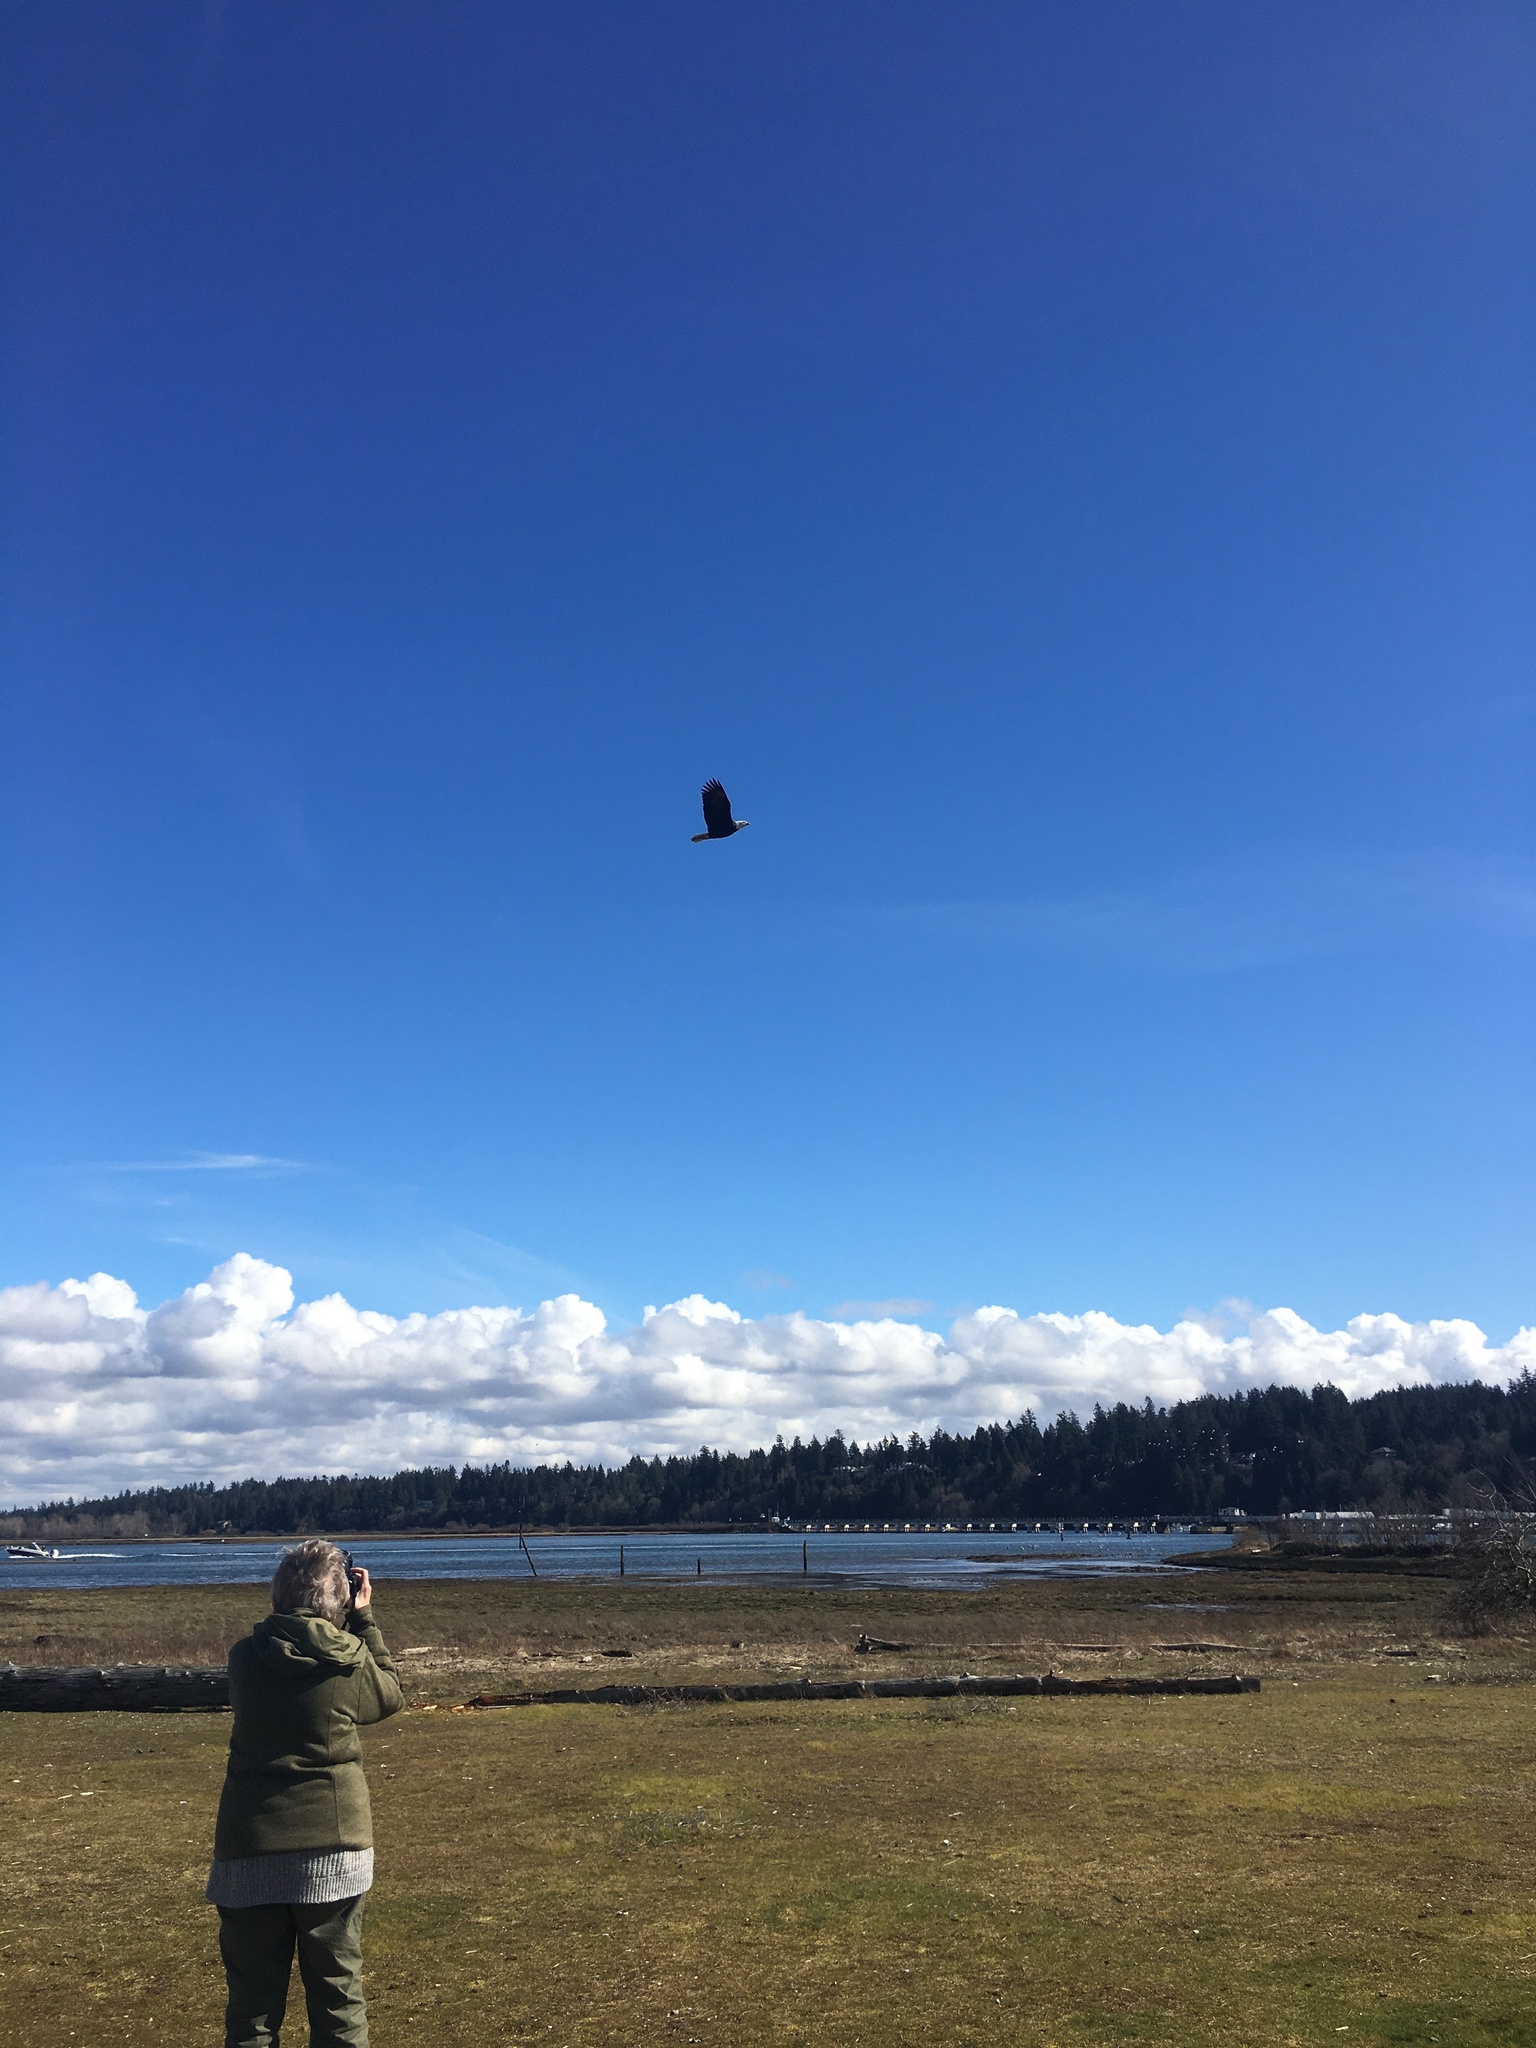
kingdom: Animalia
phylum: Chordata
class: Aves
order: Accipitriformes
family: Accipitridae
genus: Haliaeetus
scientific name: Haliaeetus leucocephalus
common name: Bald eagle
